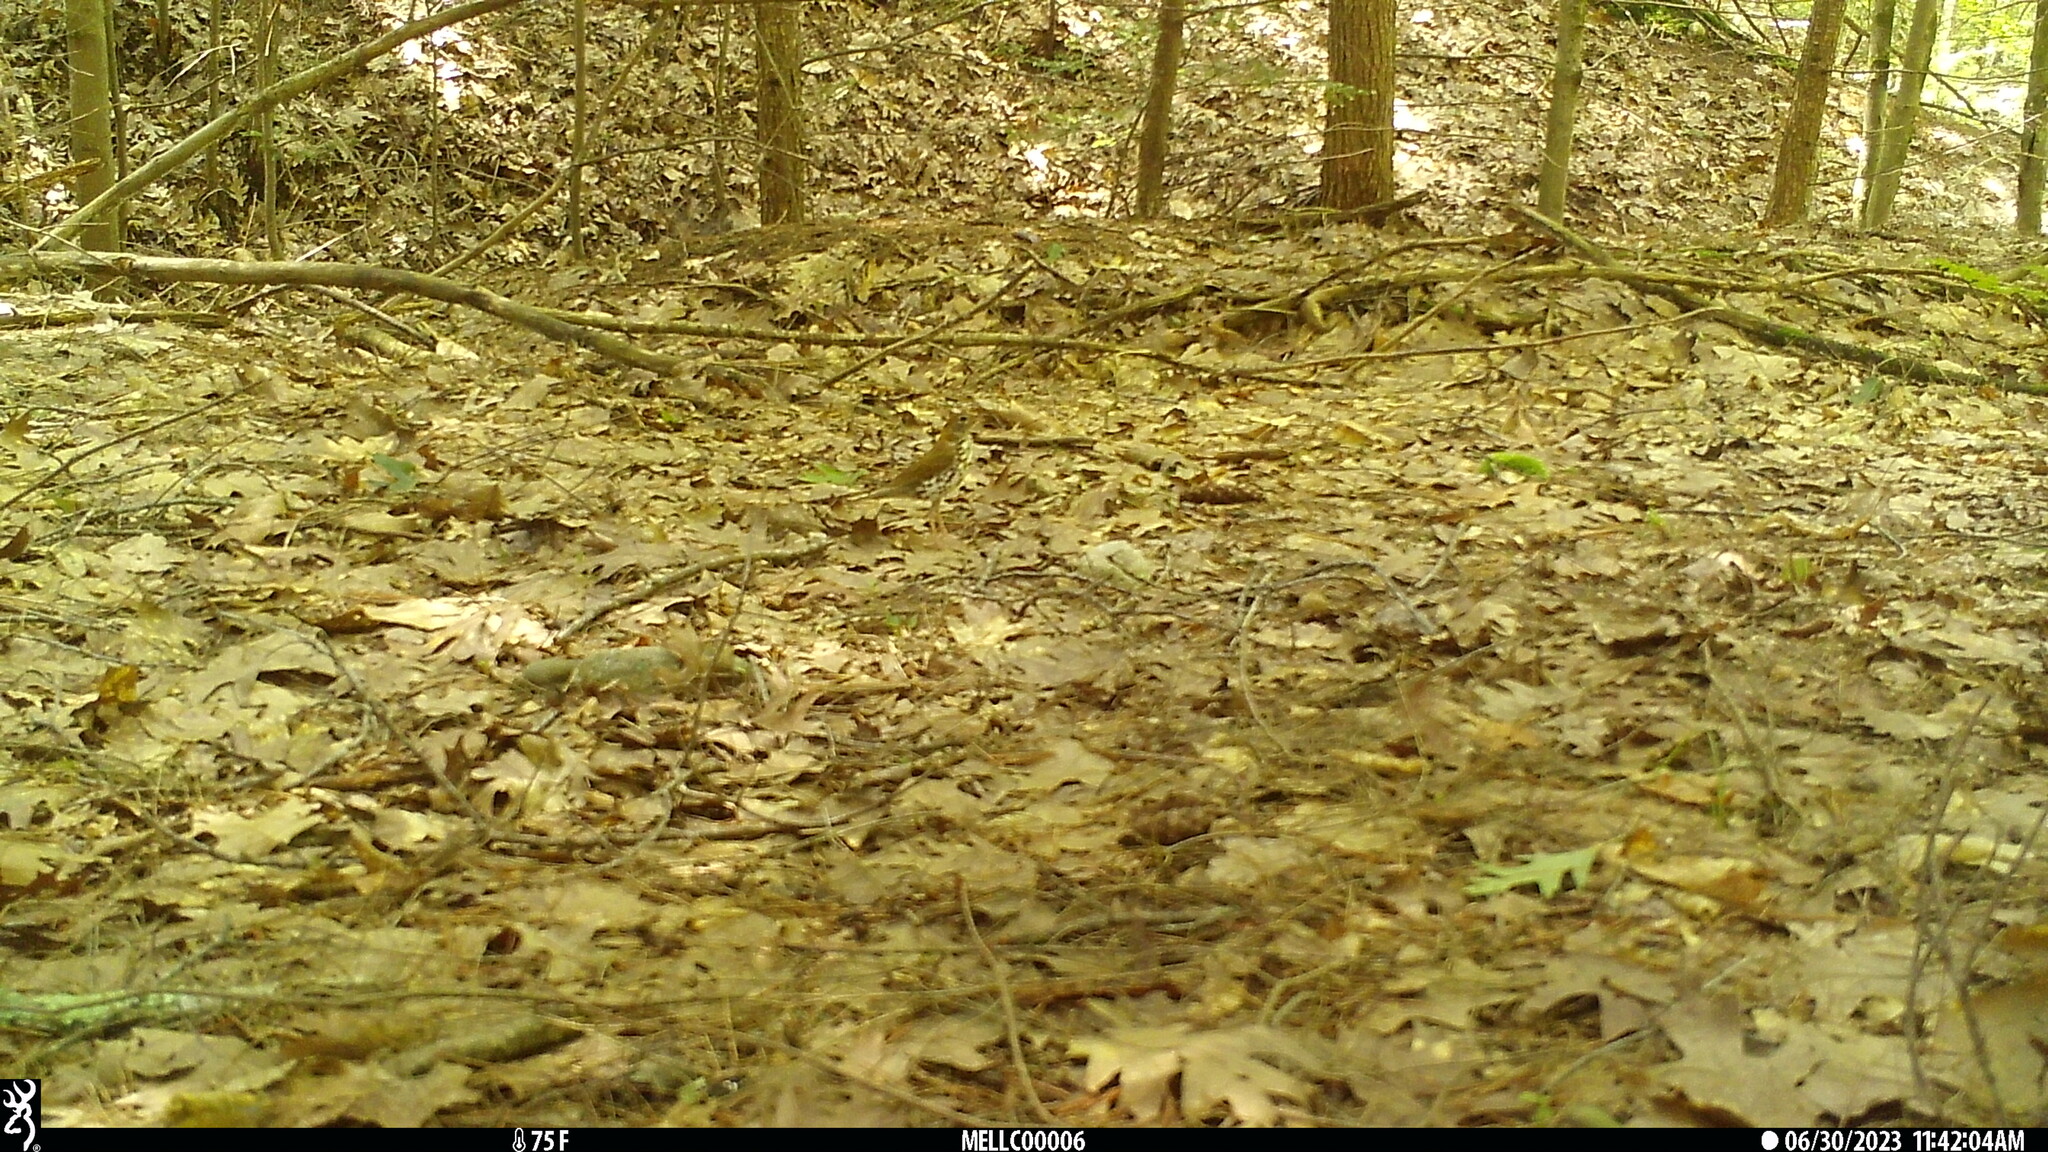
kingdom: Animalia
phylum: Chordata
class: Aves
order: Passeriformes
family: Turdidae
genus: Hylocichla
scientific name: Hylocichla mustelina
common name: Wood thrush
